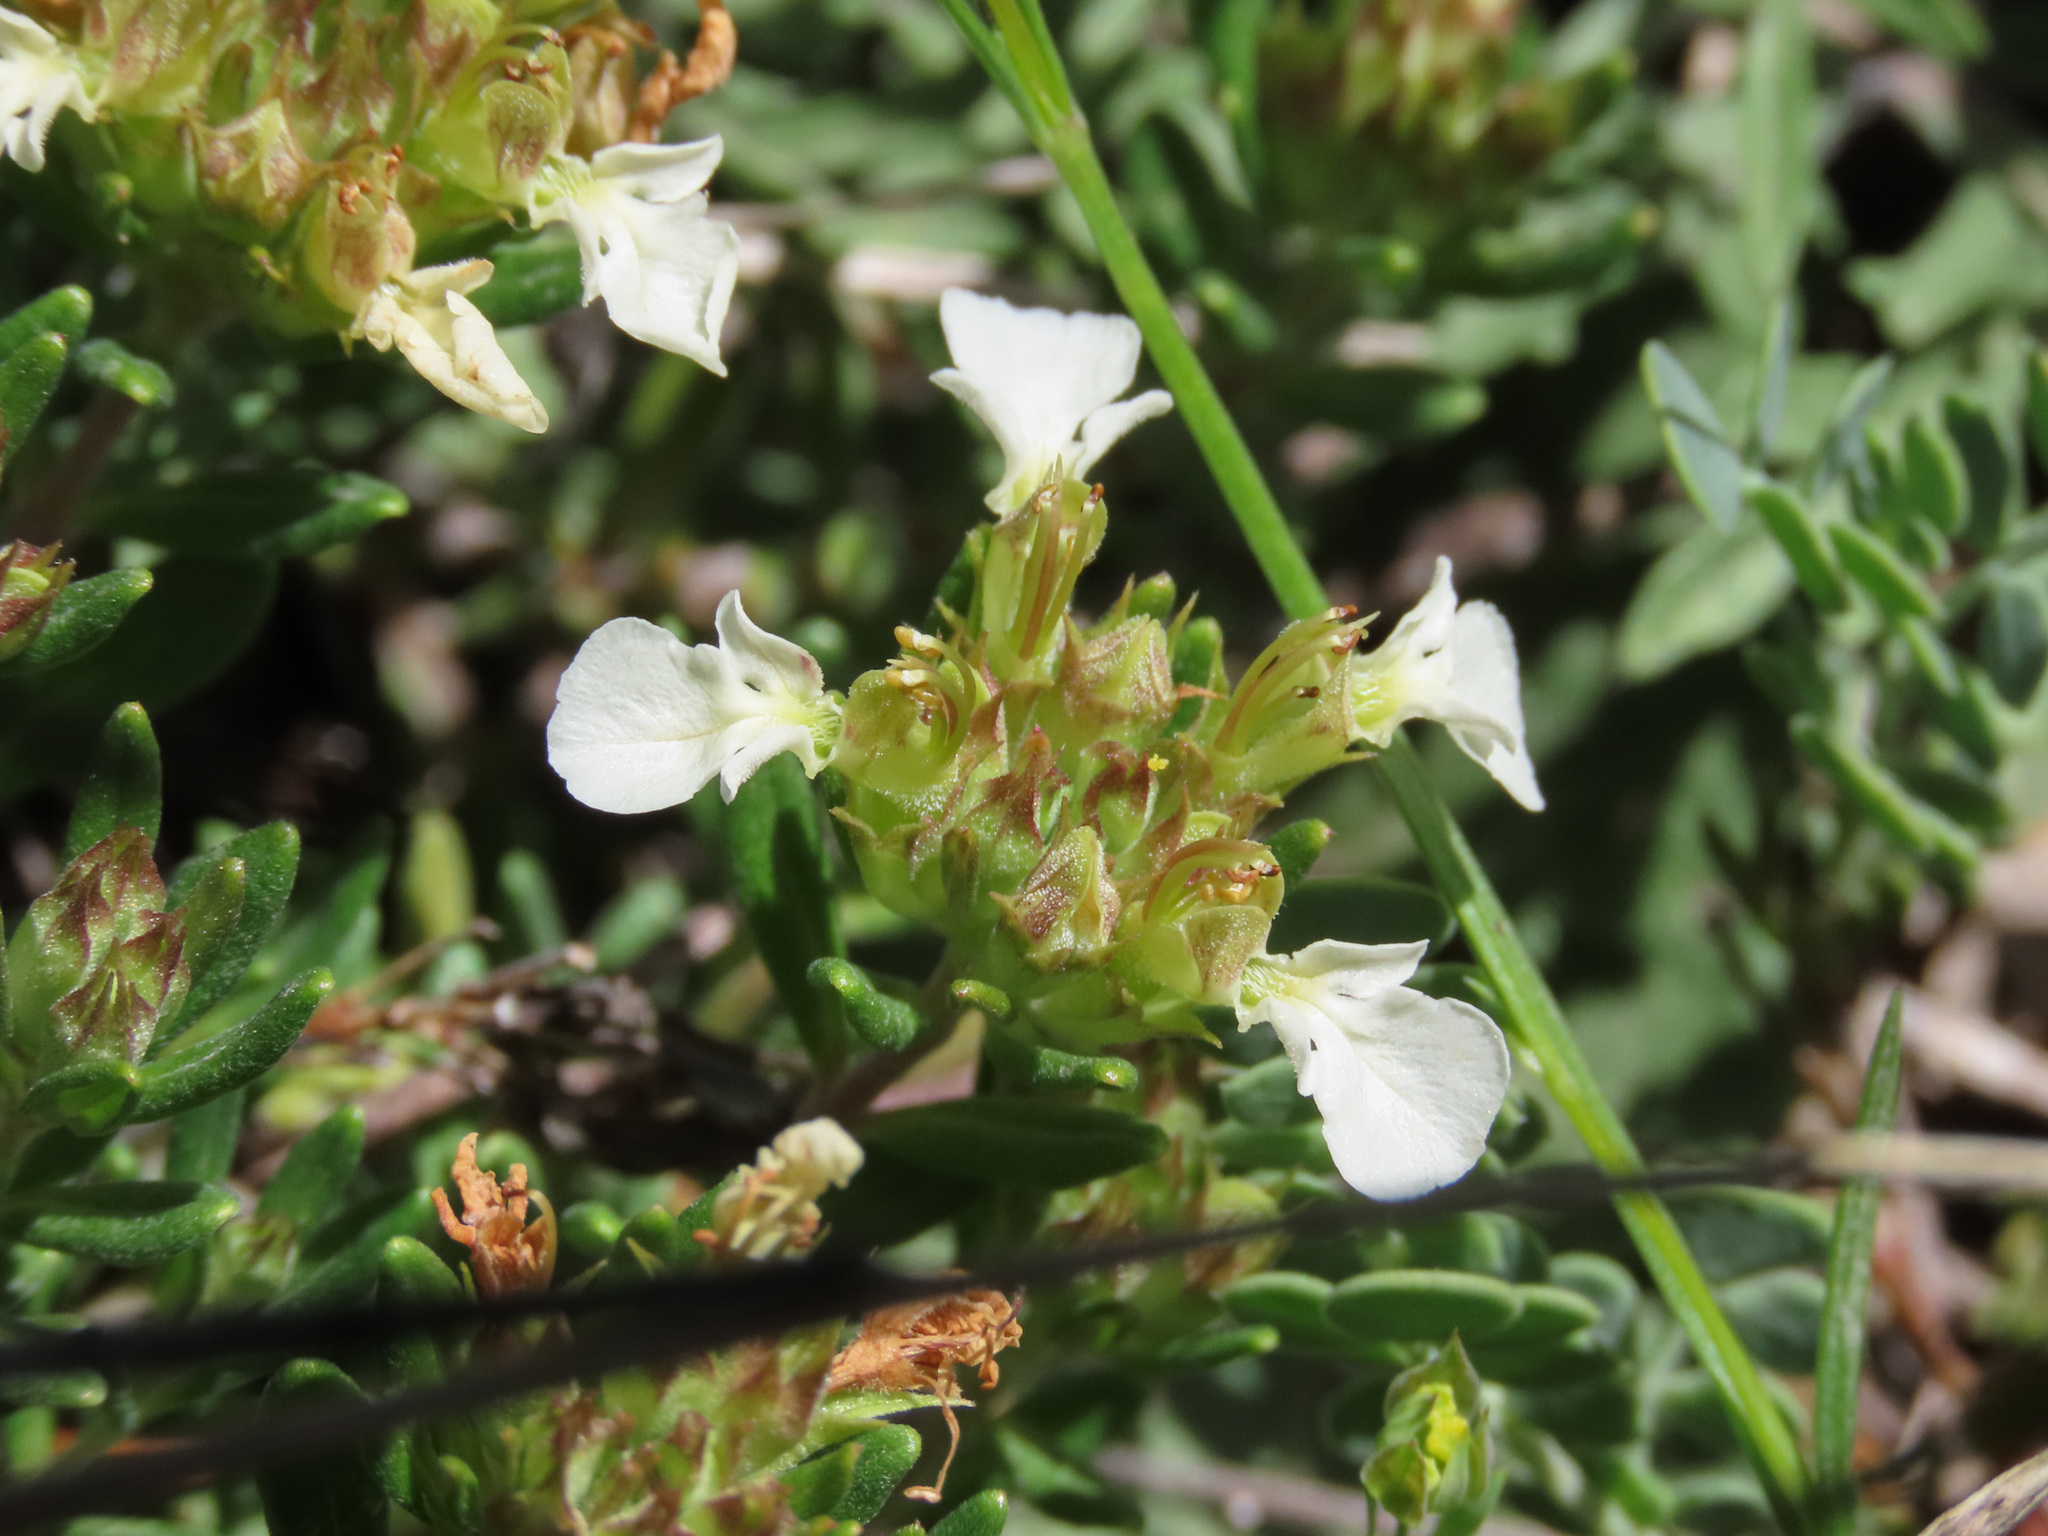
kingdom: Plantae
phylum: Tracheophyta
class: Magnoliopsida
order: Lamiales
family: Lamiaceae
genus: Teucrium
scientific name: Teucrium montanum
